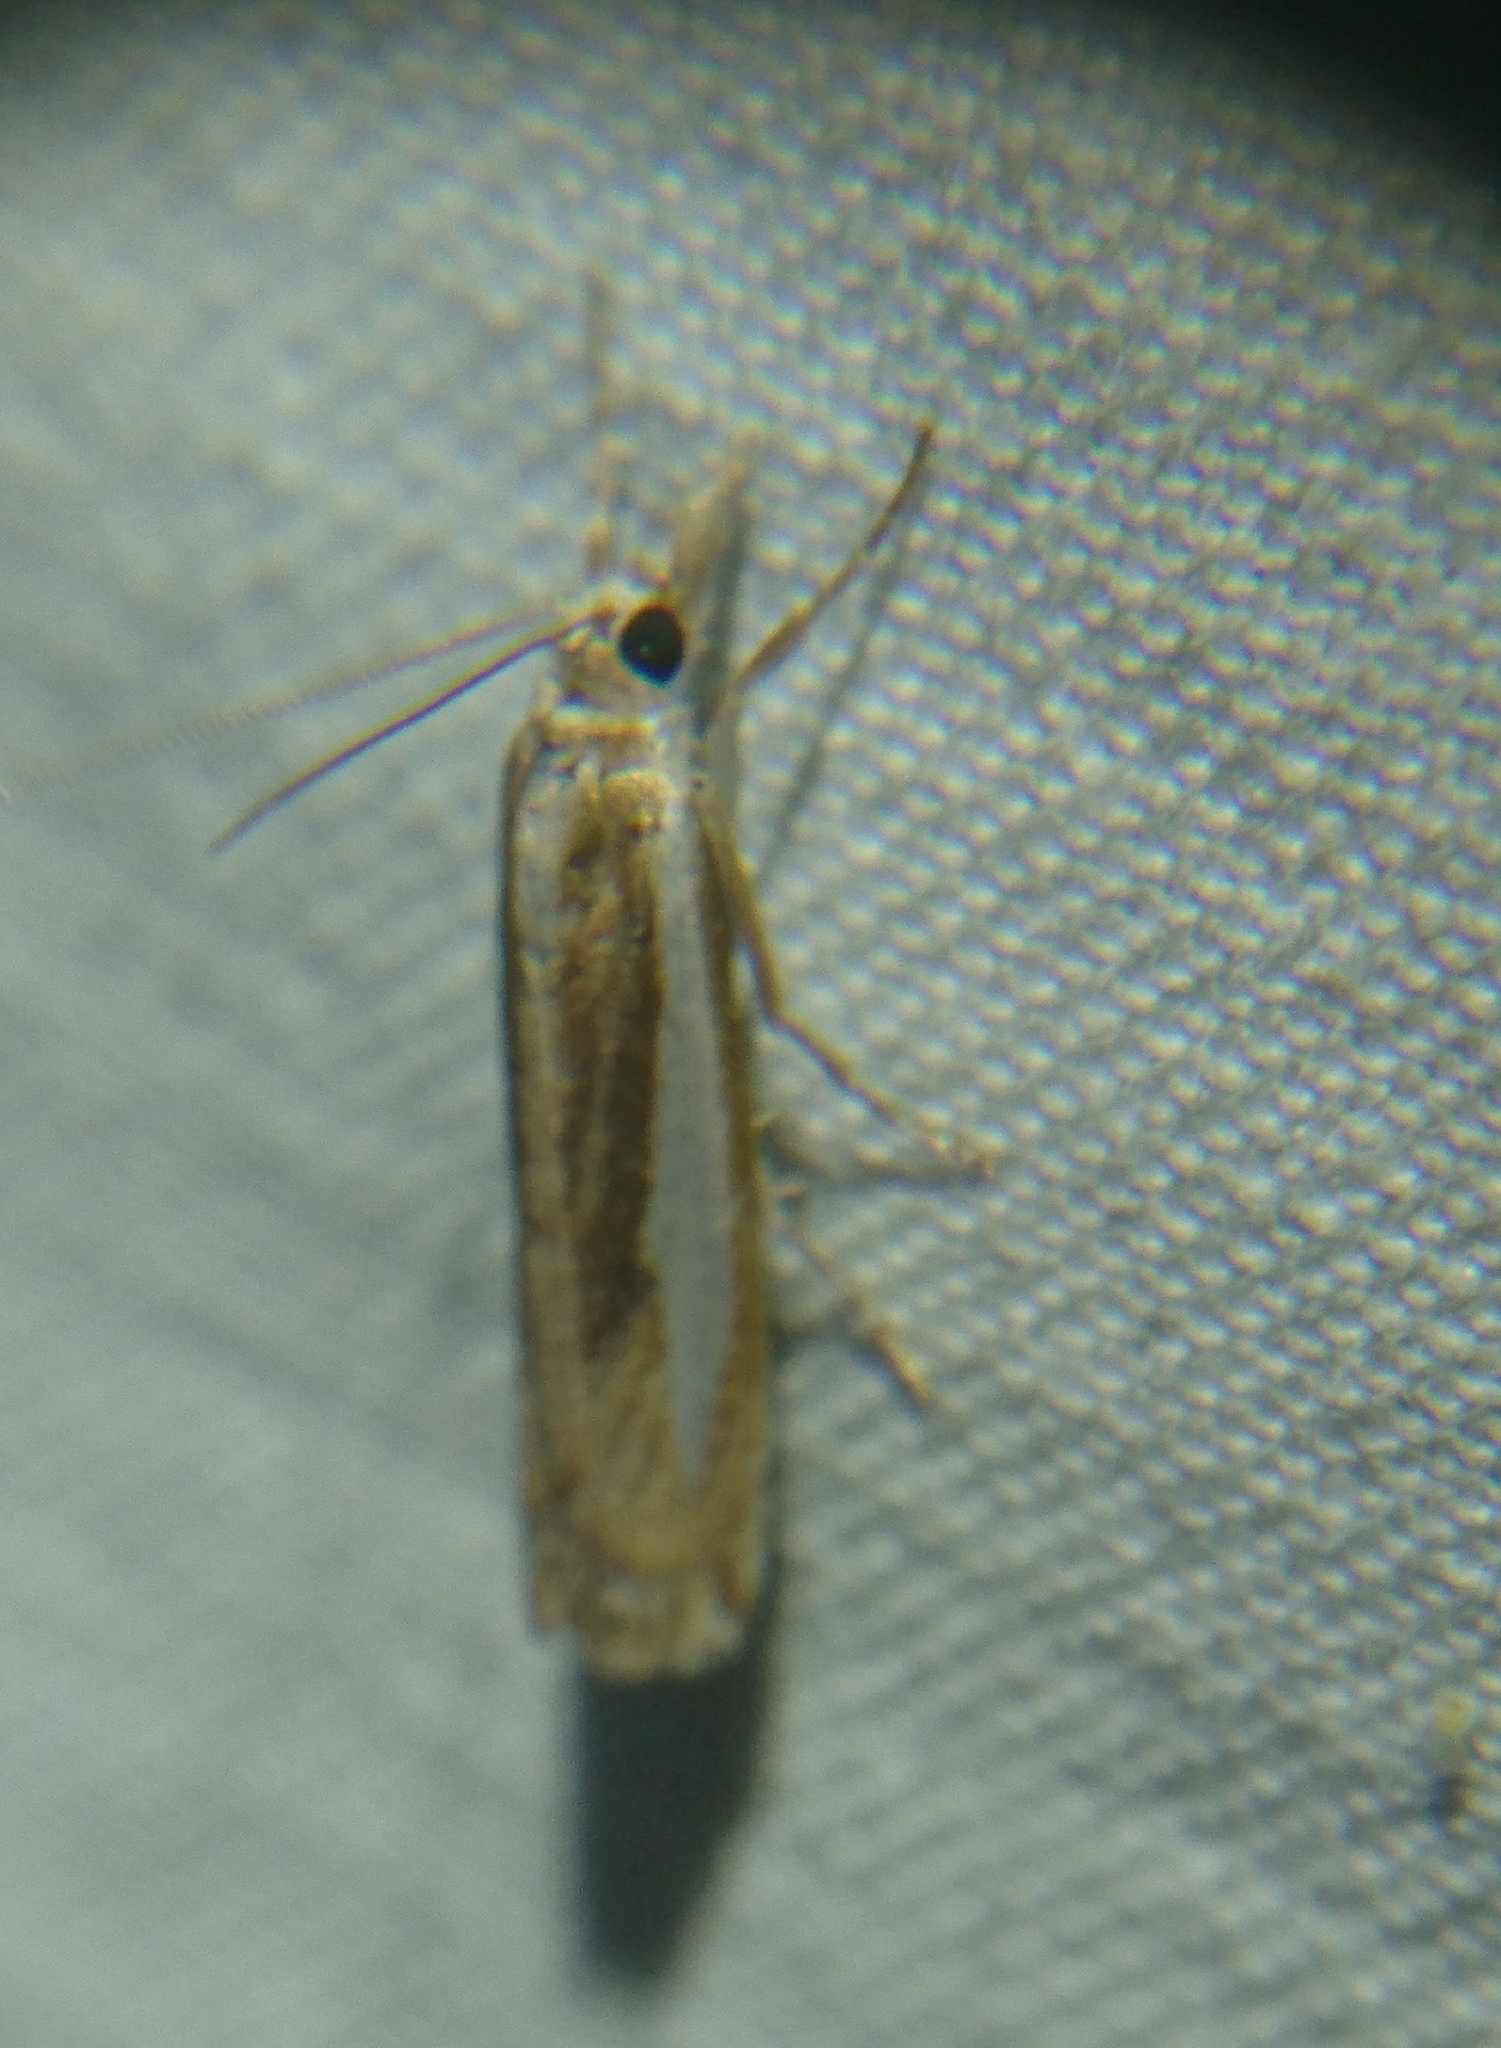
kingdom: Animalia
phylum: Arthropoda
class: Insecta
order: Lepidoptera
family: Crambidae
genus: Crambus
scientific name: Crambus praefectellus
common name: Common grass-veneer
